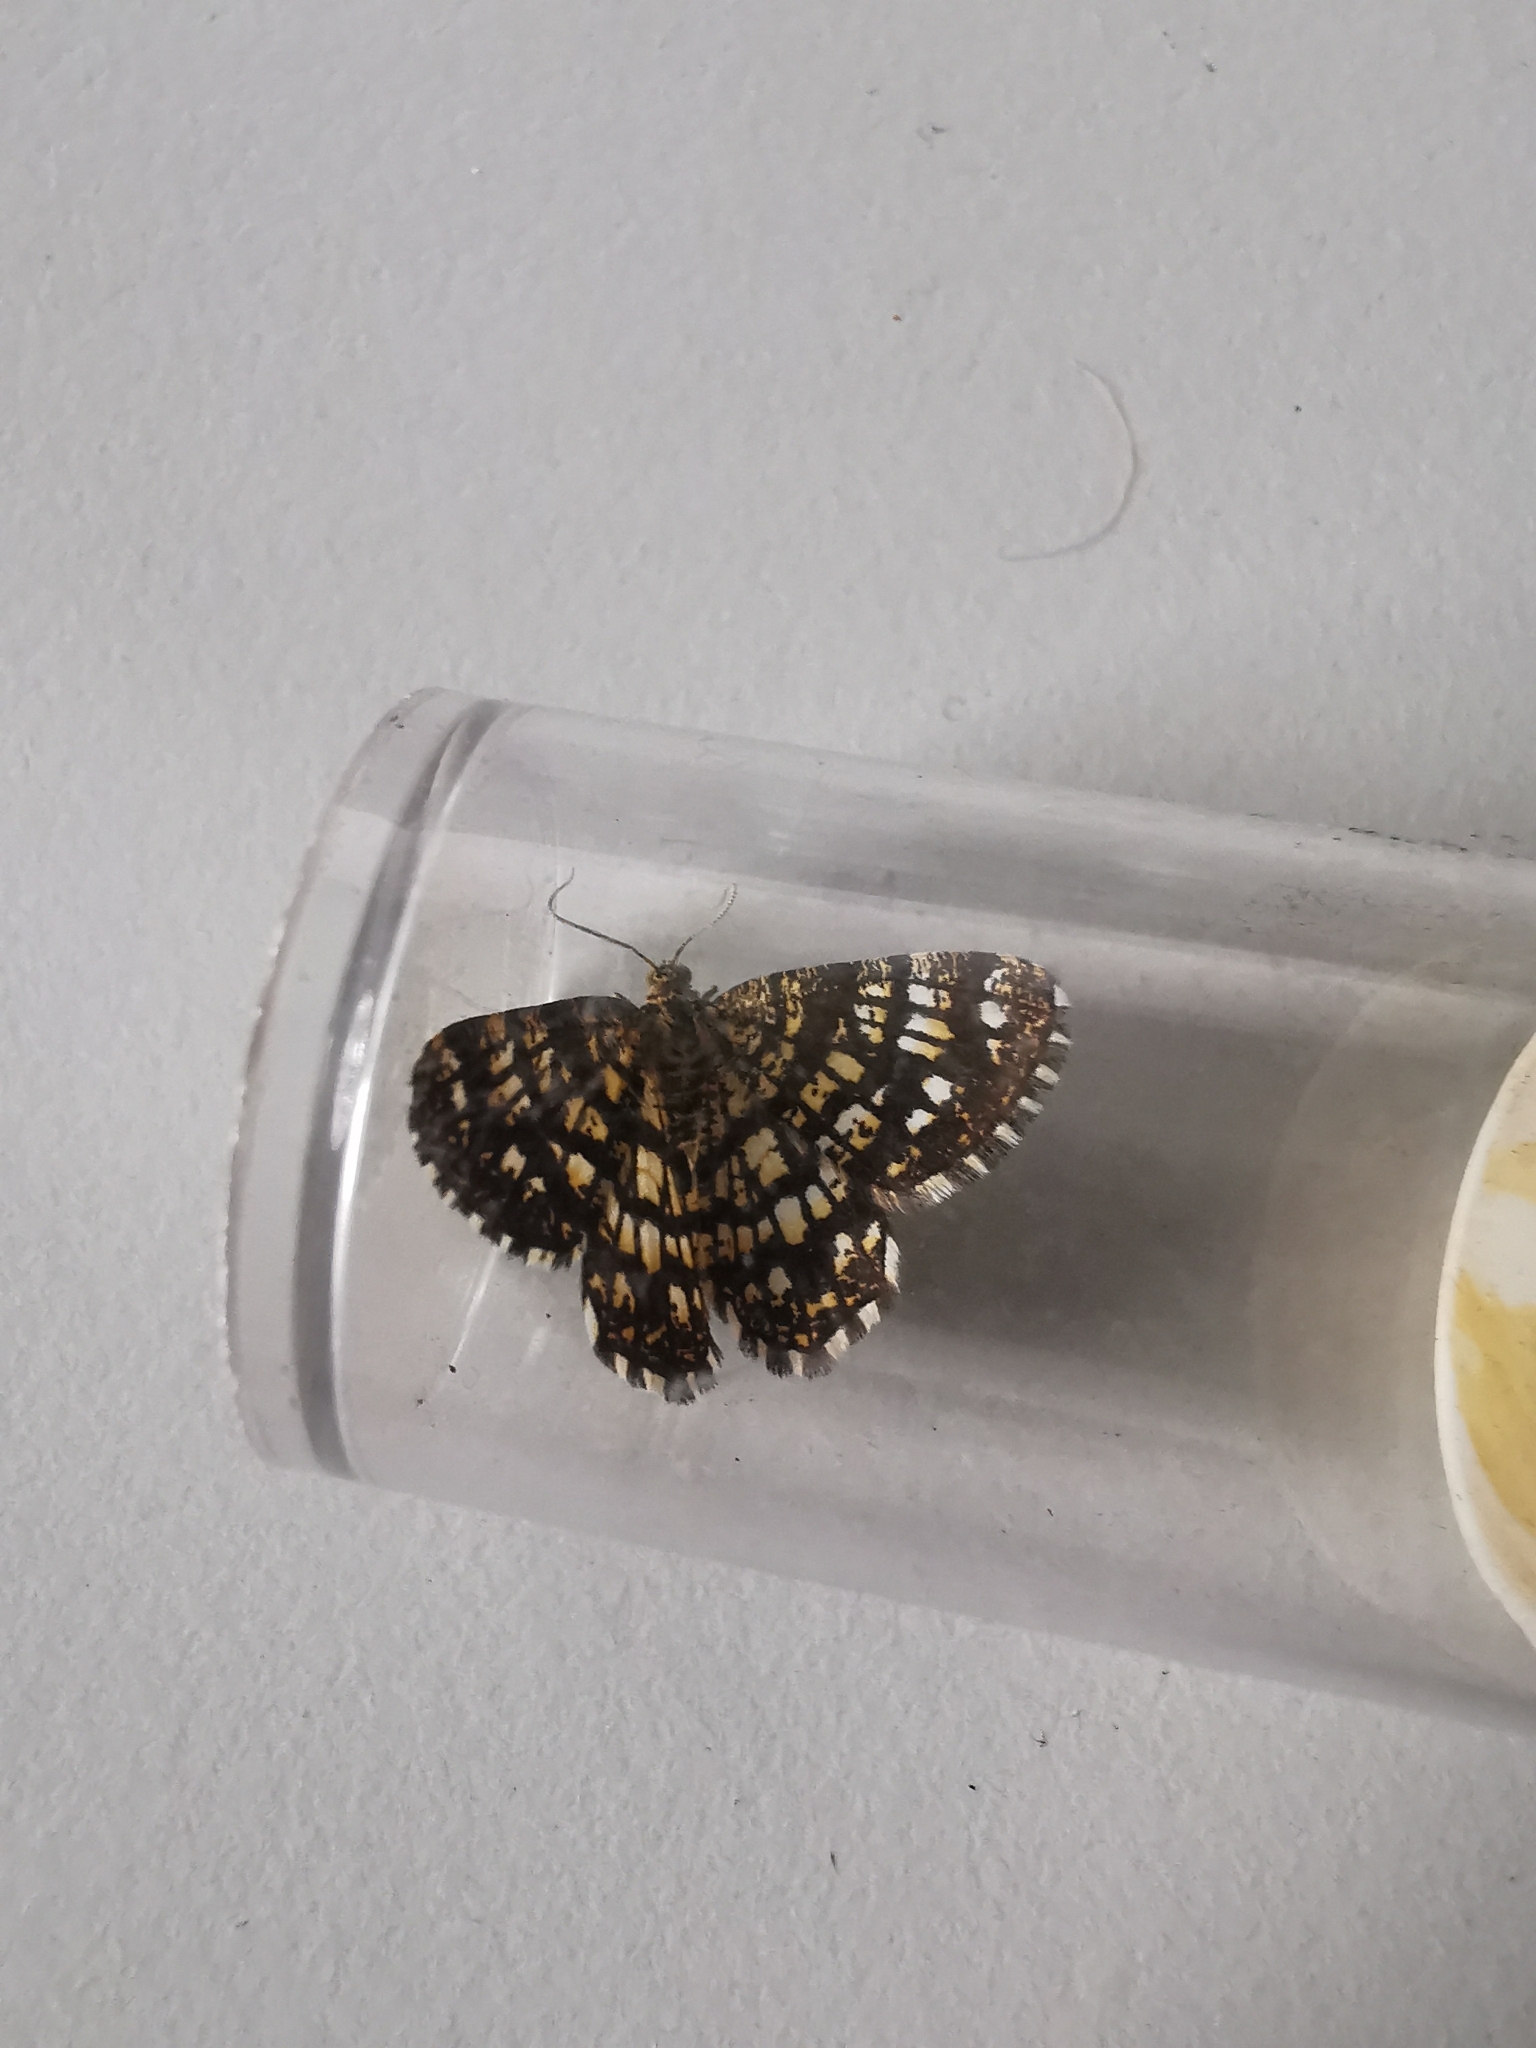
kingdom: Animalia
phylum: Arthropoda
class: Insecta
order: Lepidoptera
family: Geometridae
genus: Chiasmia
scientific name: Chiasmia clathrata
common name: Latticed heath
